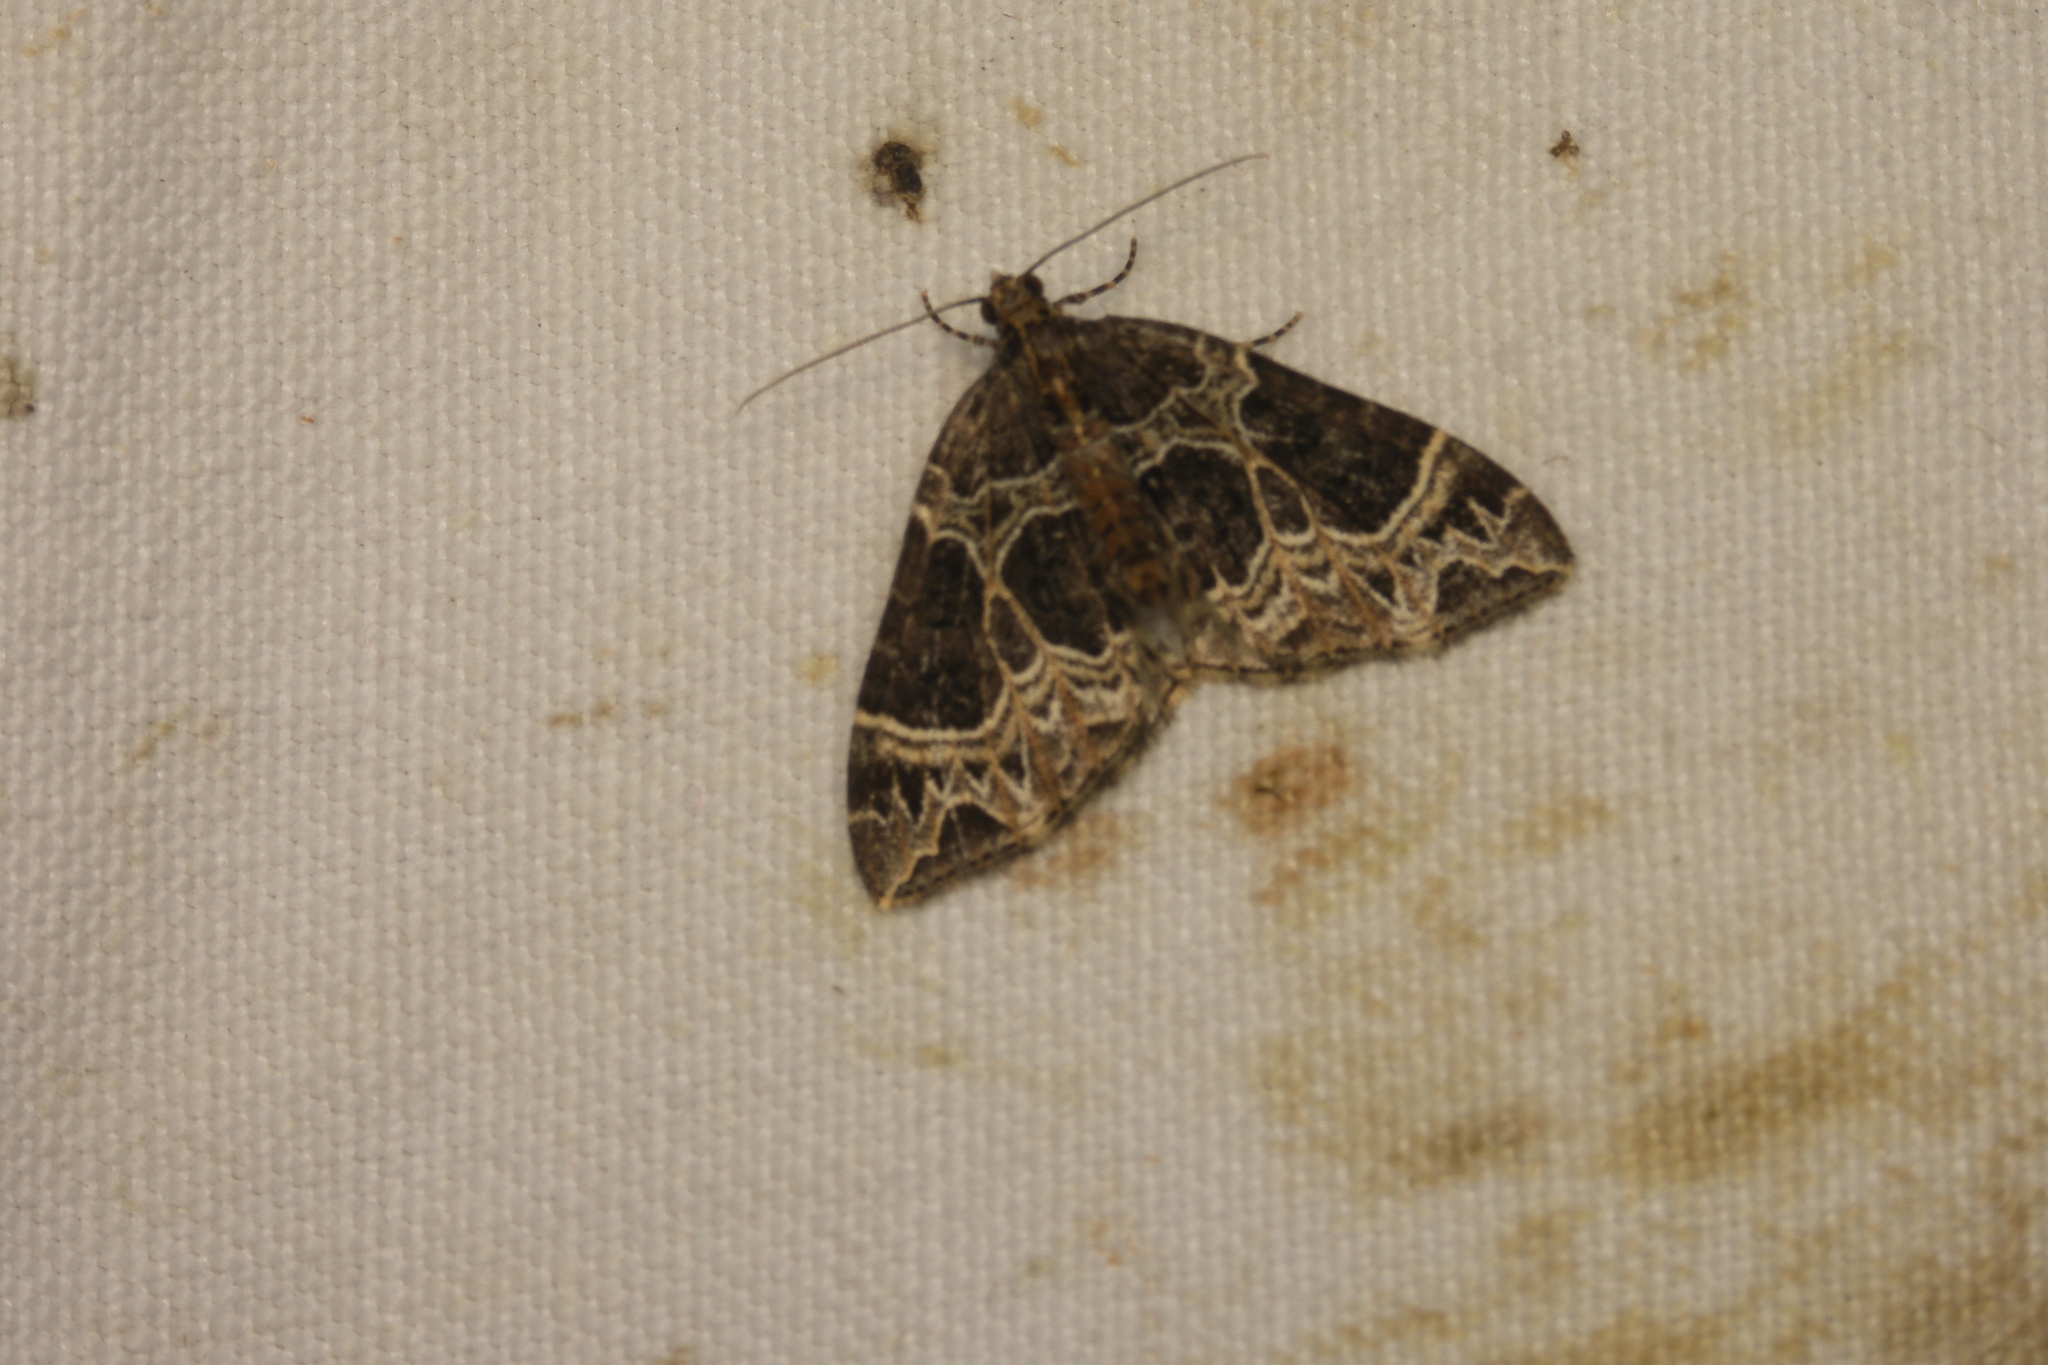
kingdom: Animalia
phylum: Arthropoda
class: Insecta
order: Lepidoptera
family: Geometridae
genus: Ecliptopera
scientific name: Ecliptopera silaceata
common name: Small phoenix
